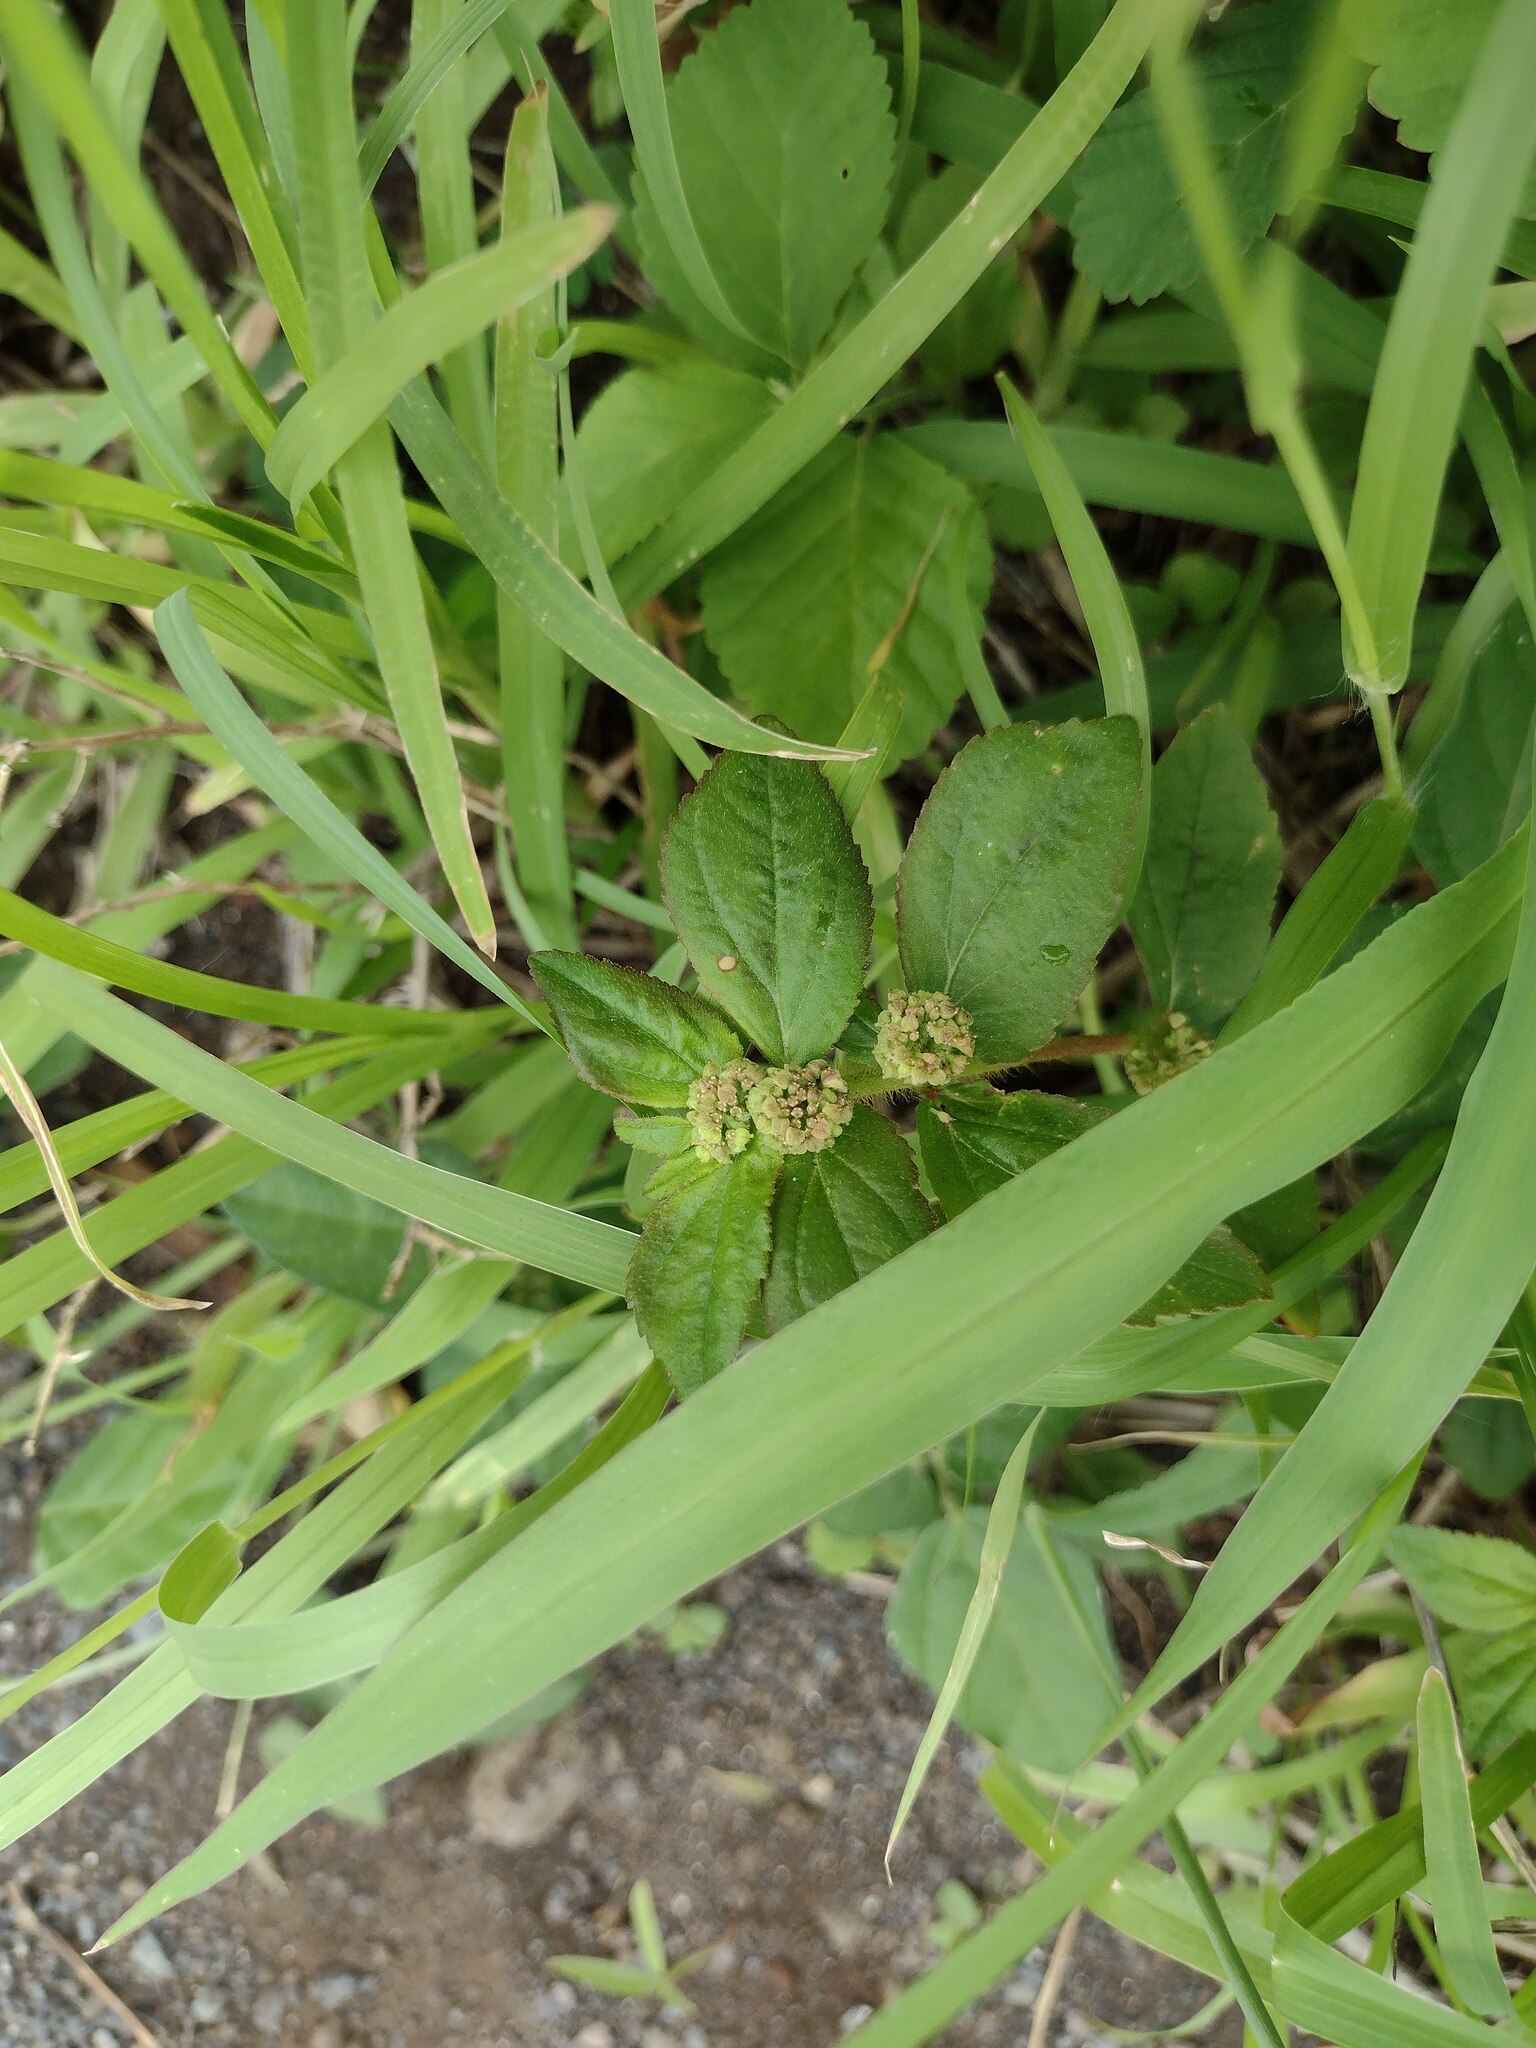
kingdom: Plantae
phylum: Tracheophyta
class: Magnoliopsida
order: Malpighiales
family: Euphorbiaceae
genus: Euphorbia
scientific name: Euphorbia hirta
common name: Pillpod sandmat
